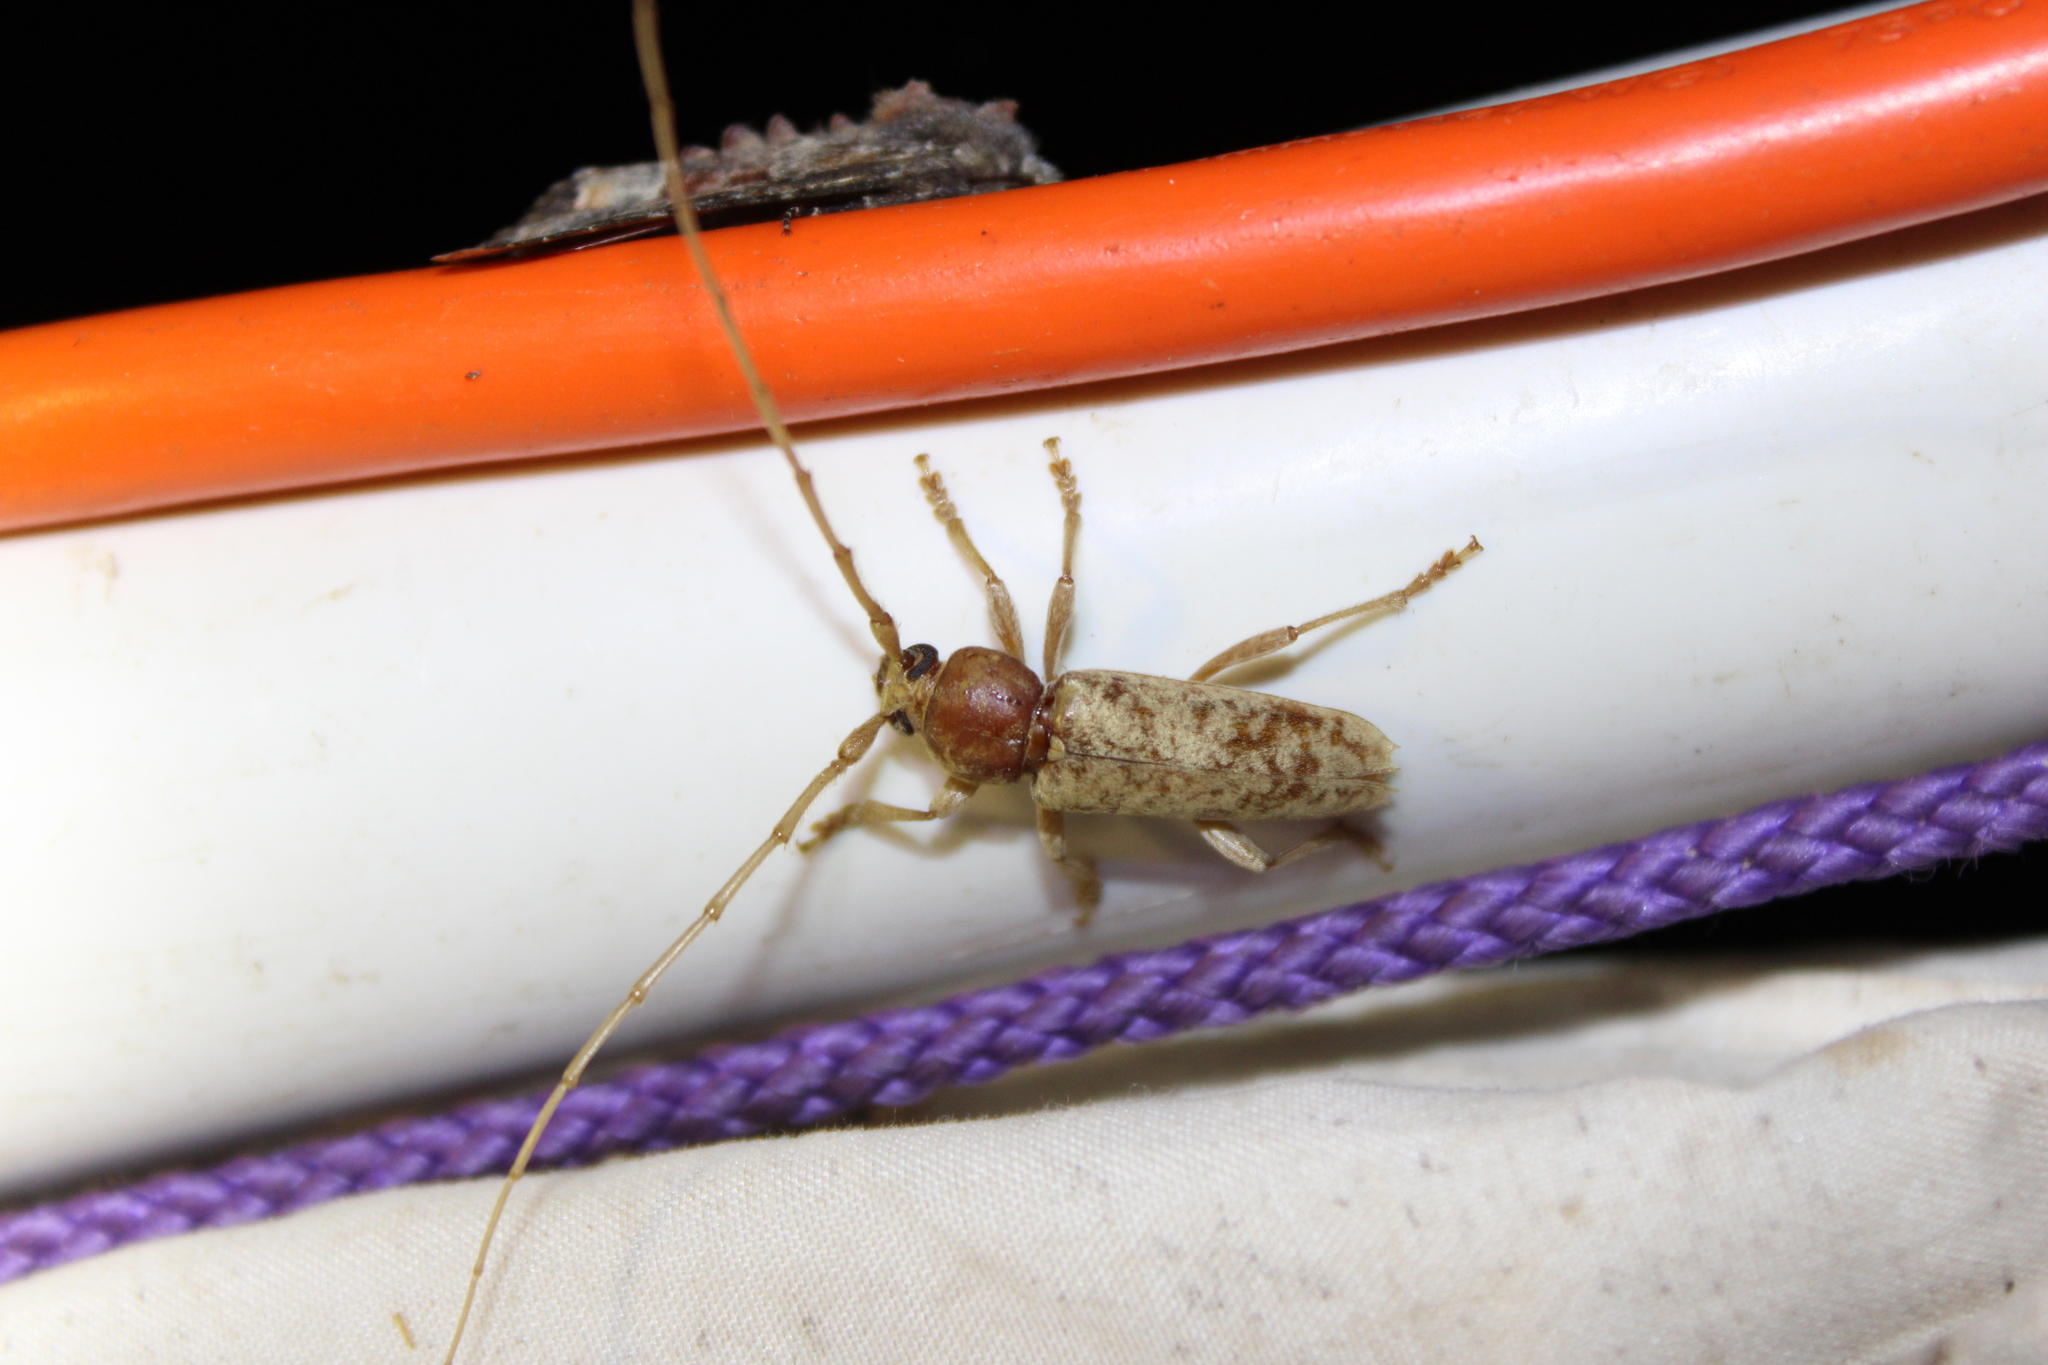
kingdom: Animalia
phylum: Arthropoda
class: Insecta
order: Coleoptera
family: Cerambycidae
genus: Enaphalodes
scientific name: Enaphalodes rufulus
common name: Red oak borer
